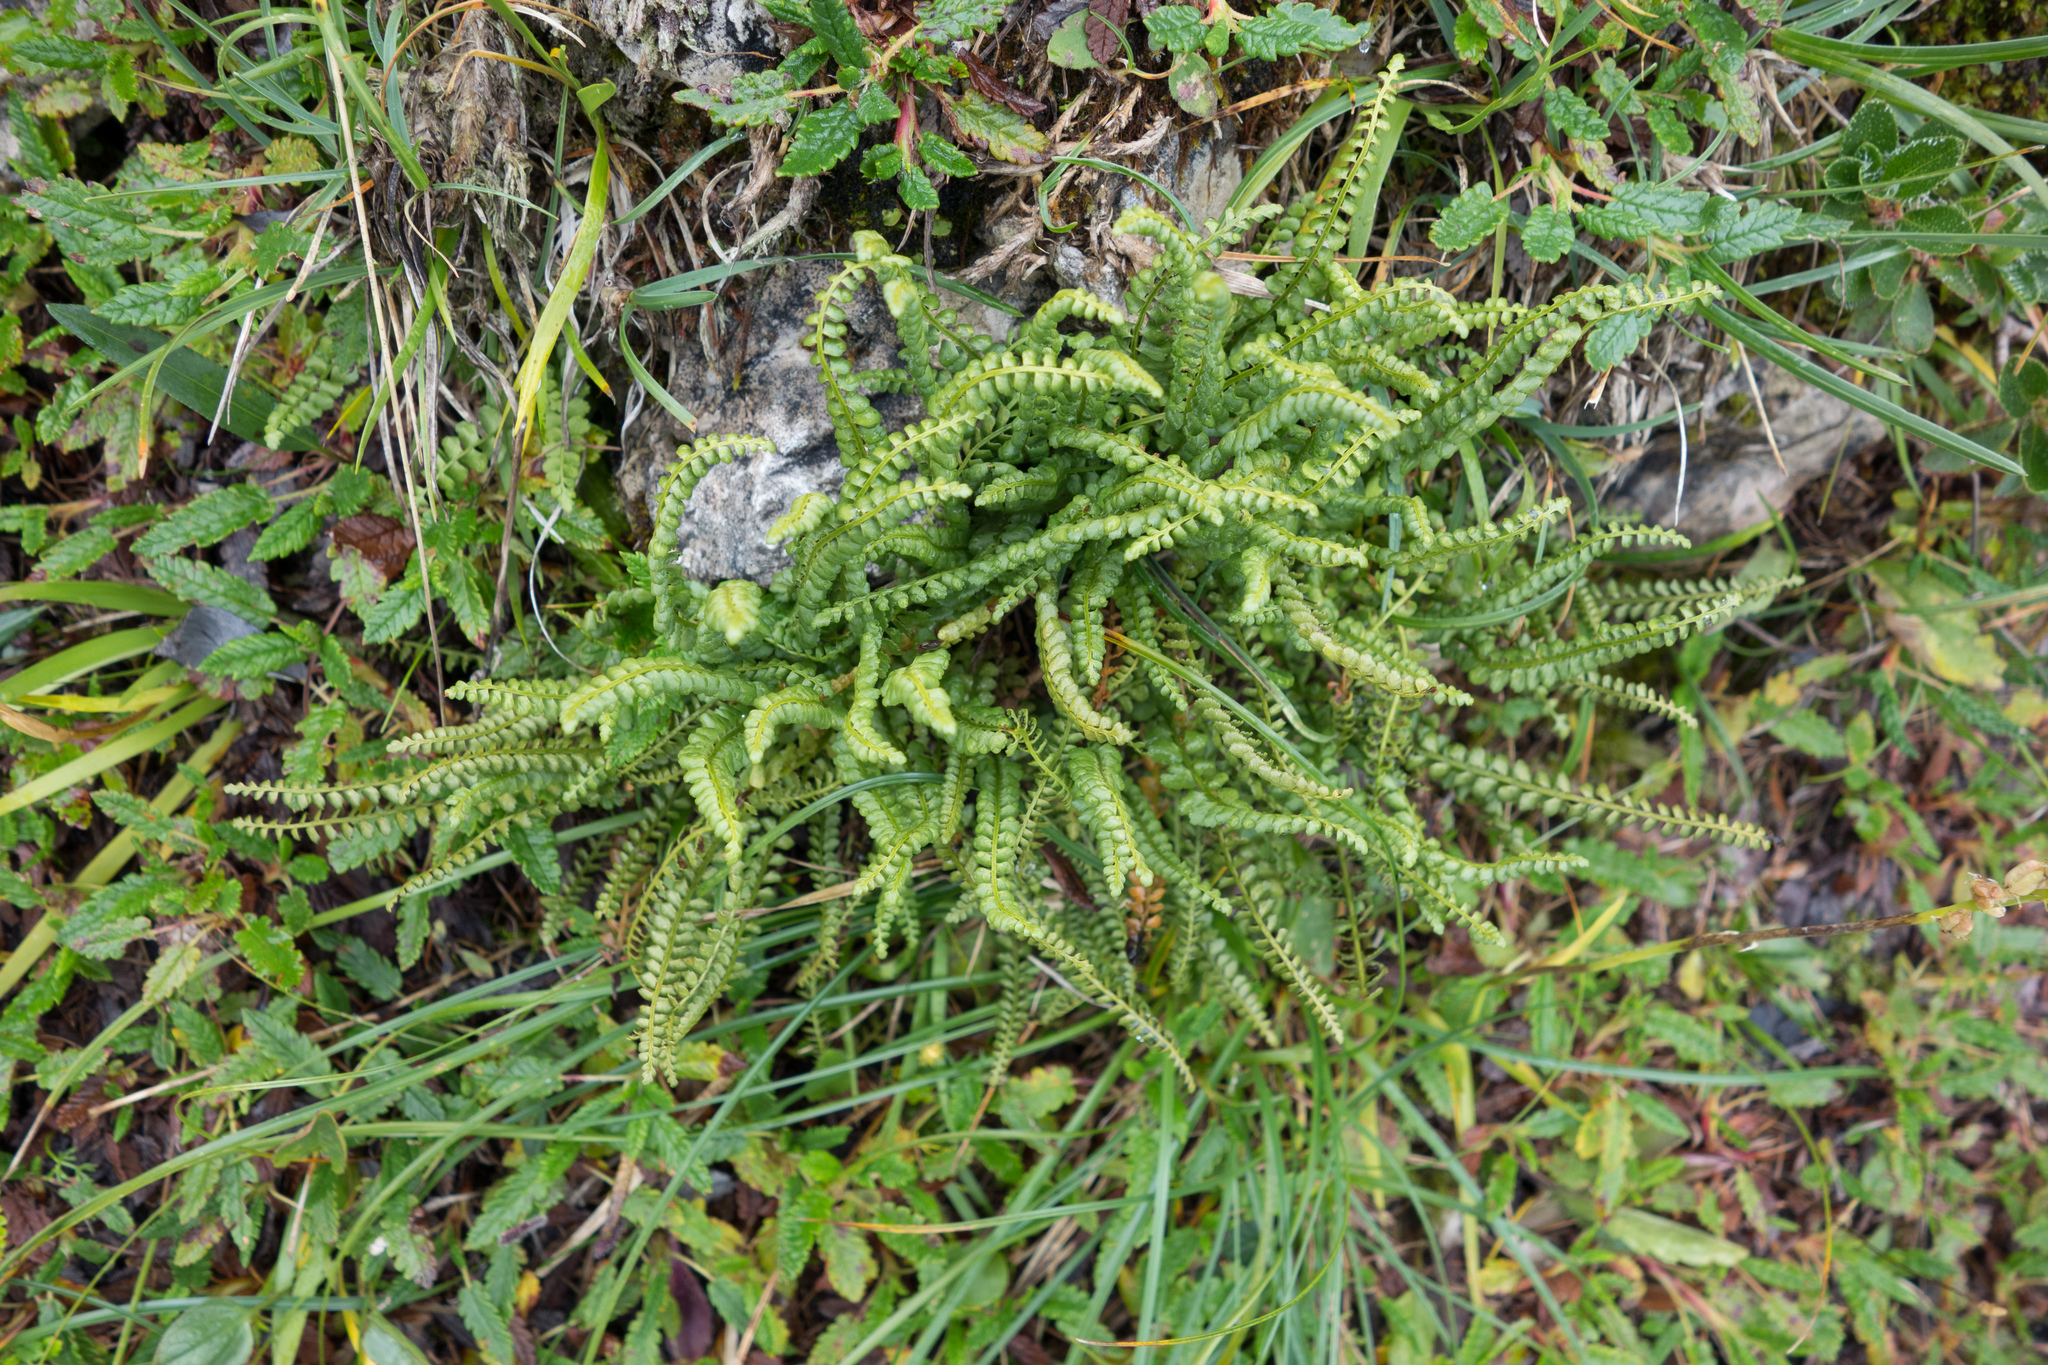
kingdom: Plantae
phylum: Tracheophyta
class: Polypodiopsida
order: Polypodiales
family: Aspleniaceae
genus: Asplenium
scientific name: Asplenium viride
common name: Green spleenwort
